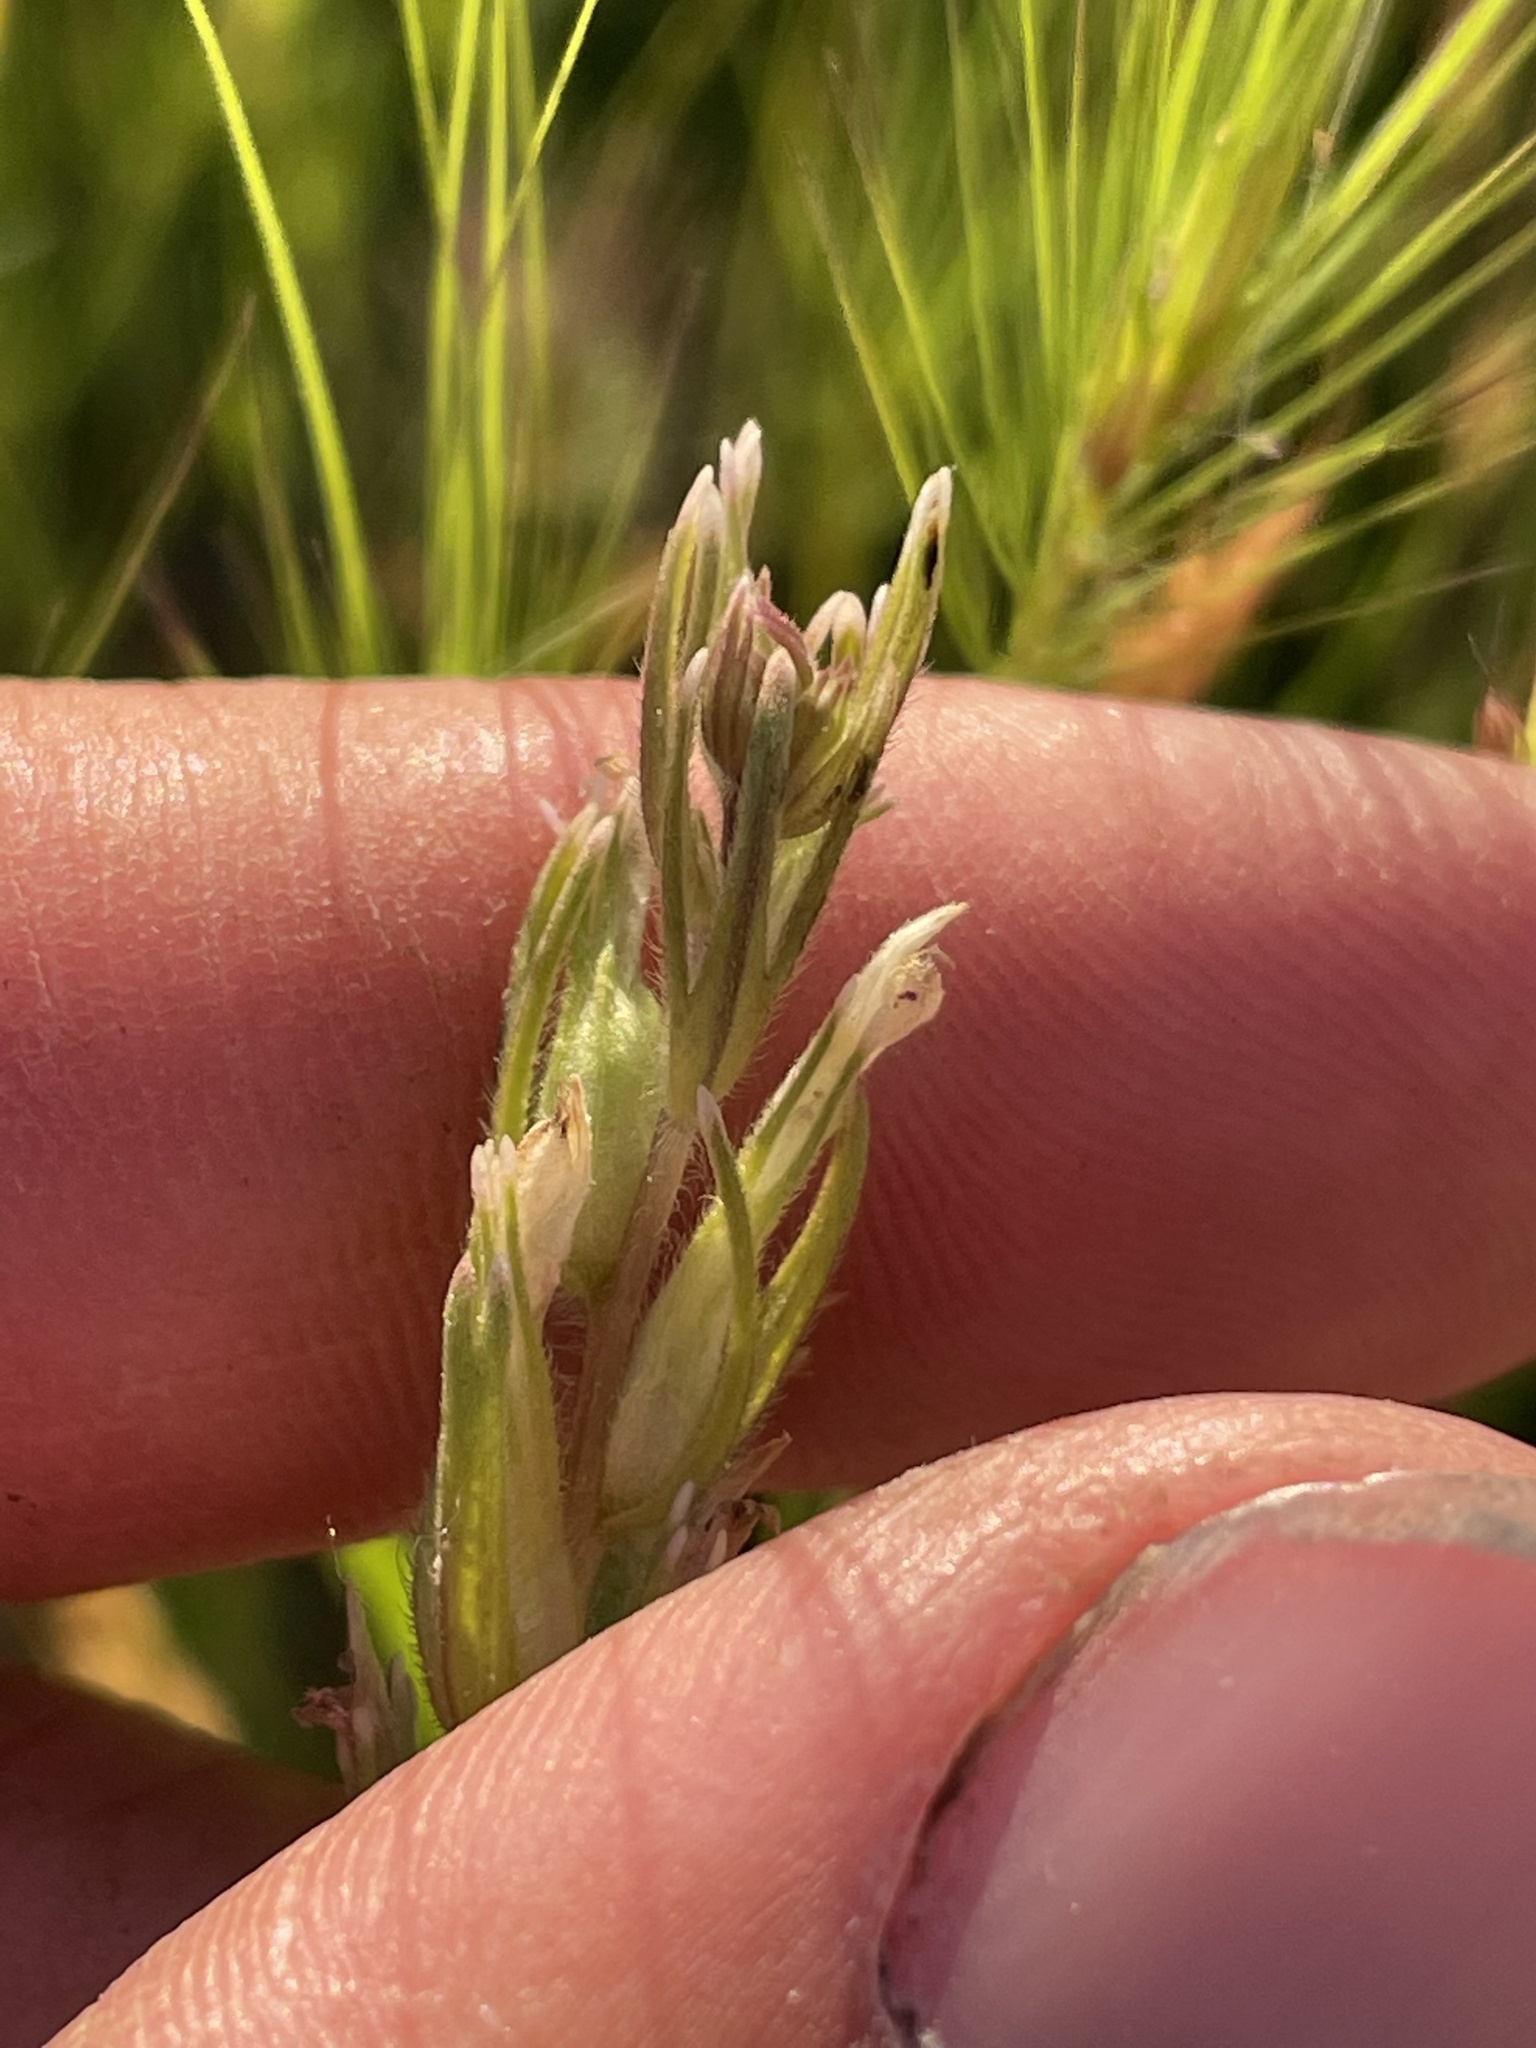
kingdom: Plantae
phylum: Tracheophyta
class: Magnoliopsida
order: Lamiales
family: Orobanchaceae
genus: Castilleja
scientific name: Castilleja attenuata
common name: Valley tassels
